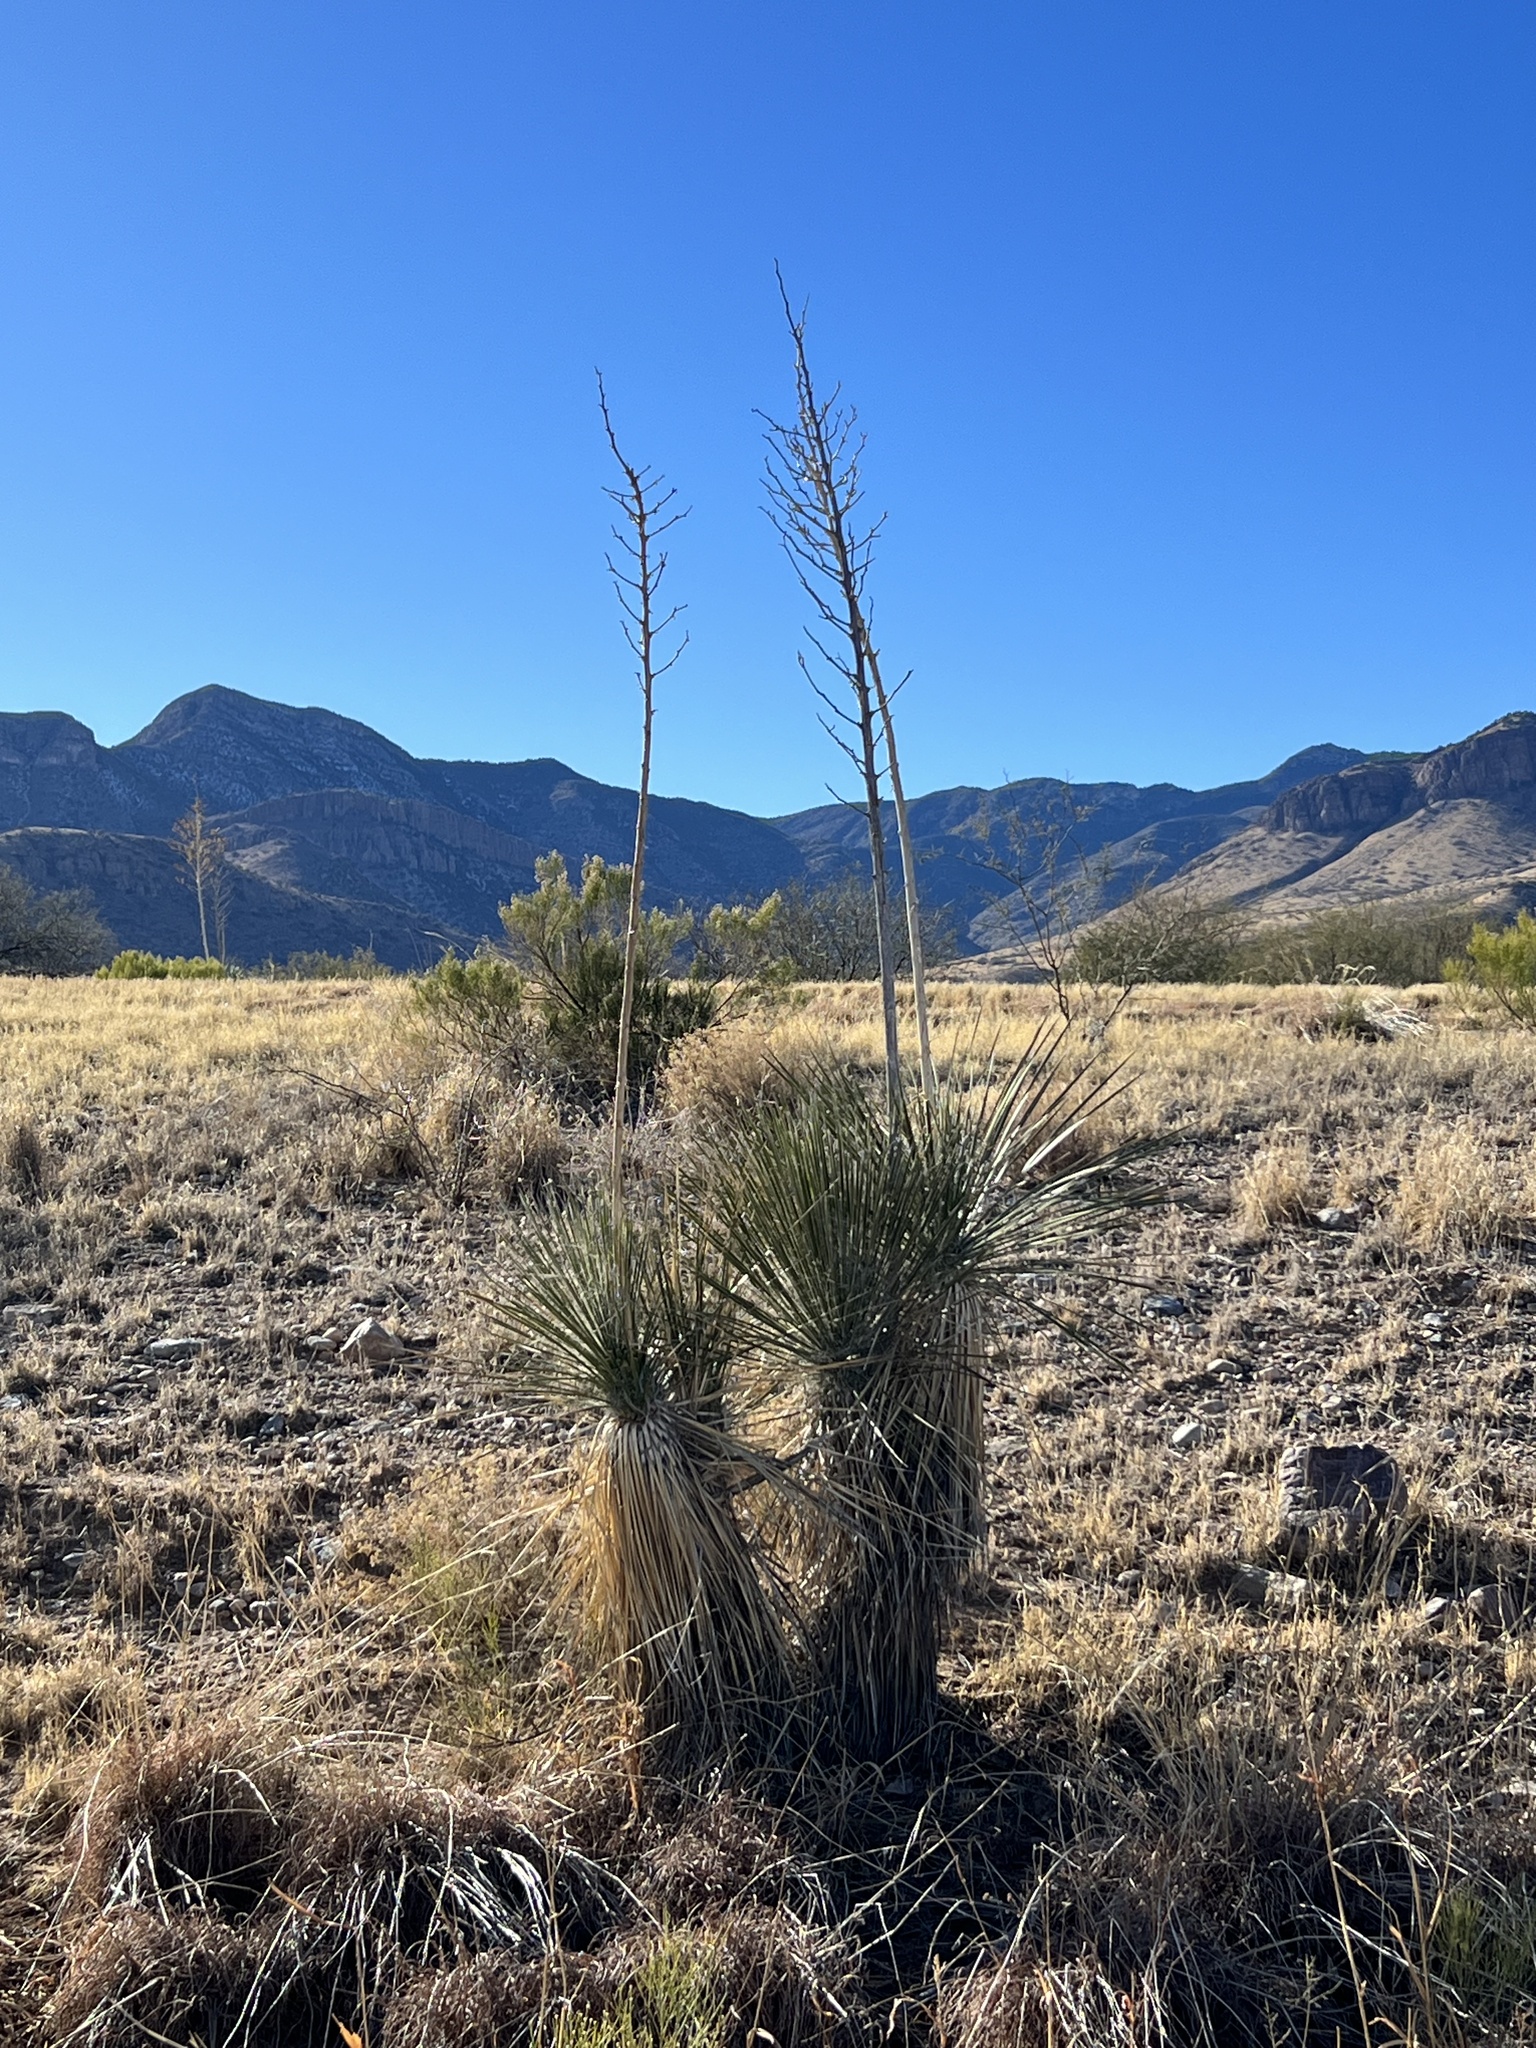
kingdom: Plantae
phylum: Tracheophyta
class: Liliopsida
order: Asparagales
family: Asparagaceae
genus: Yucca
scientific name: Yucca elata
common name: Palmella
